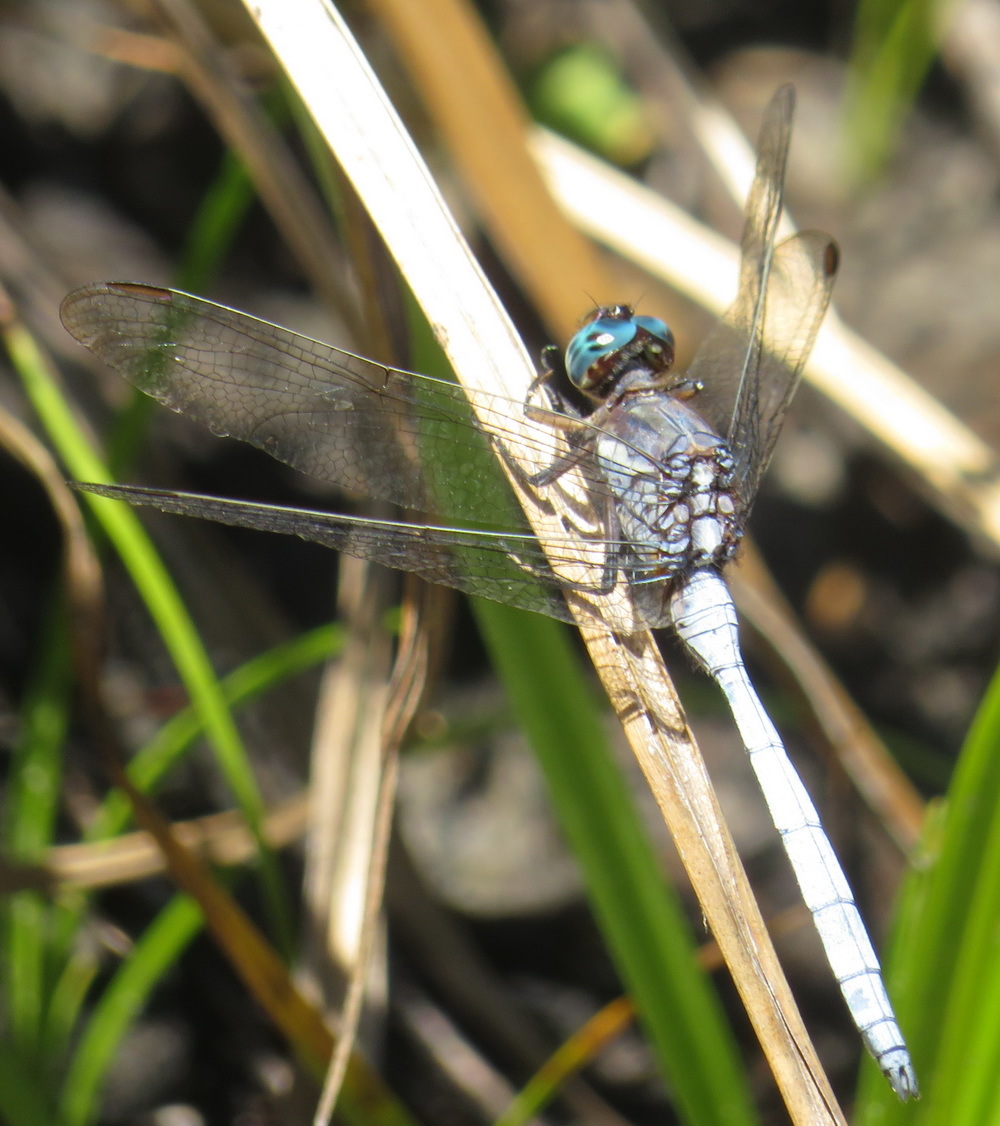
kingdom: Animalia
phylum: Arthropoda
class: Insecta
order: Odonata
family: Libellulidae
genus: Orthetrum
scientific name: Orthetrum julia
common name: Julia skimmer
